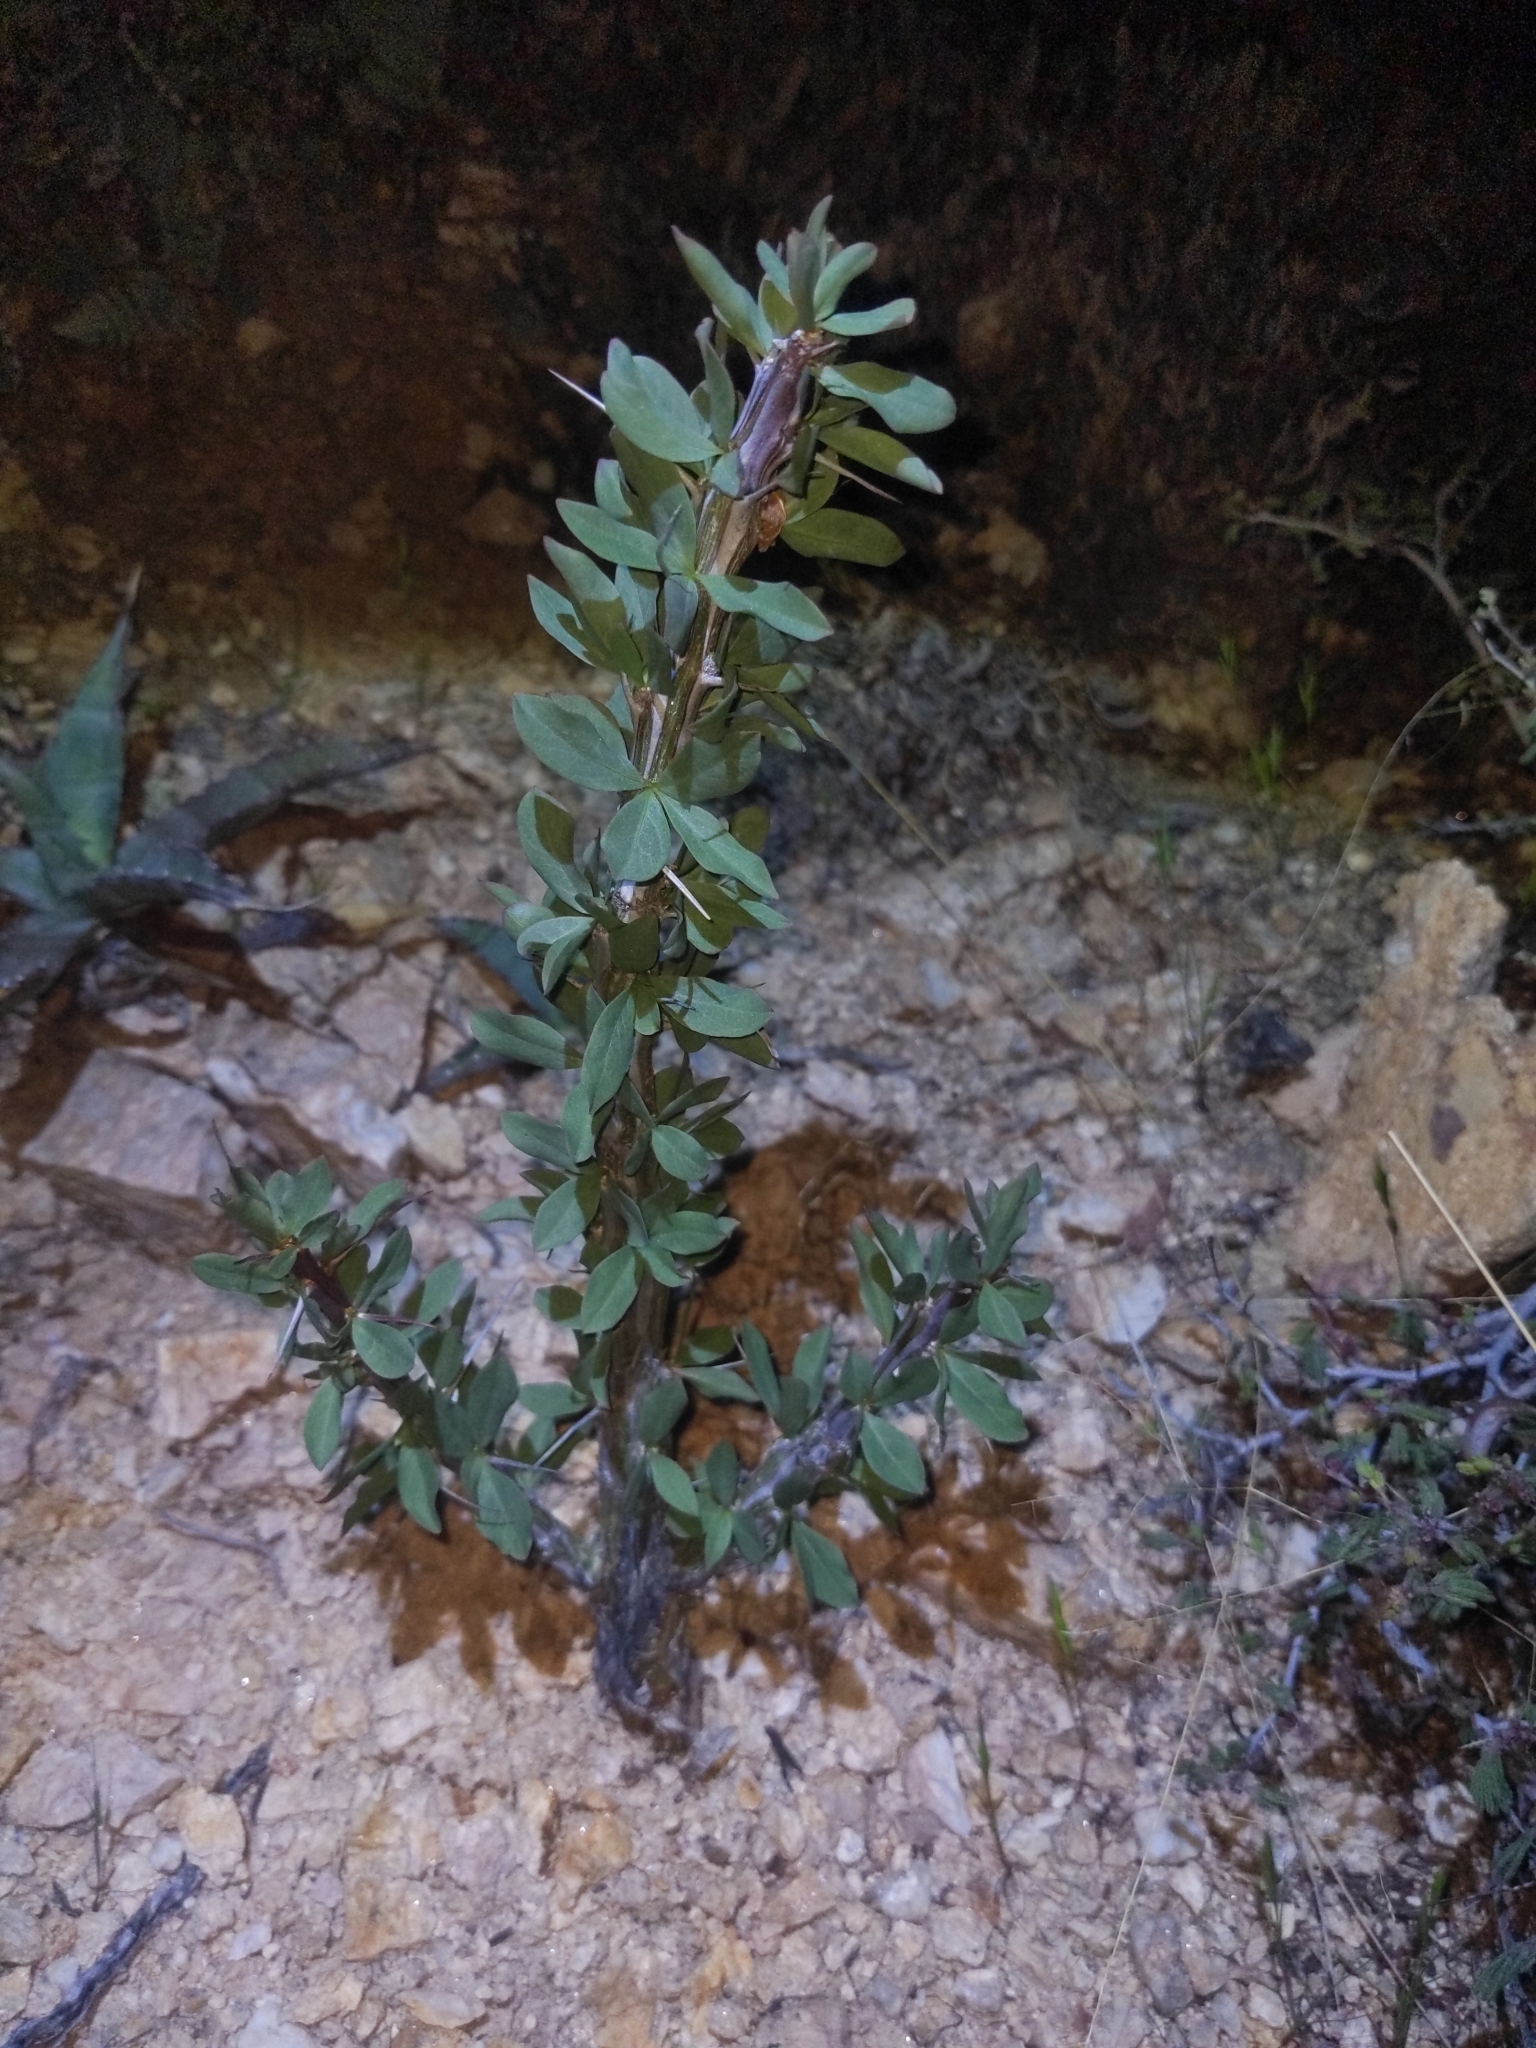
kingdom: Plantae
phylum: Tracheophyta
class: Magnoliopsida
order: Ericales
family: Fouquieriaceae
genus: Fouquieria
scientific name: Fouquieria splendens
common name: Vine-cactus
